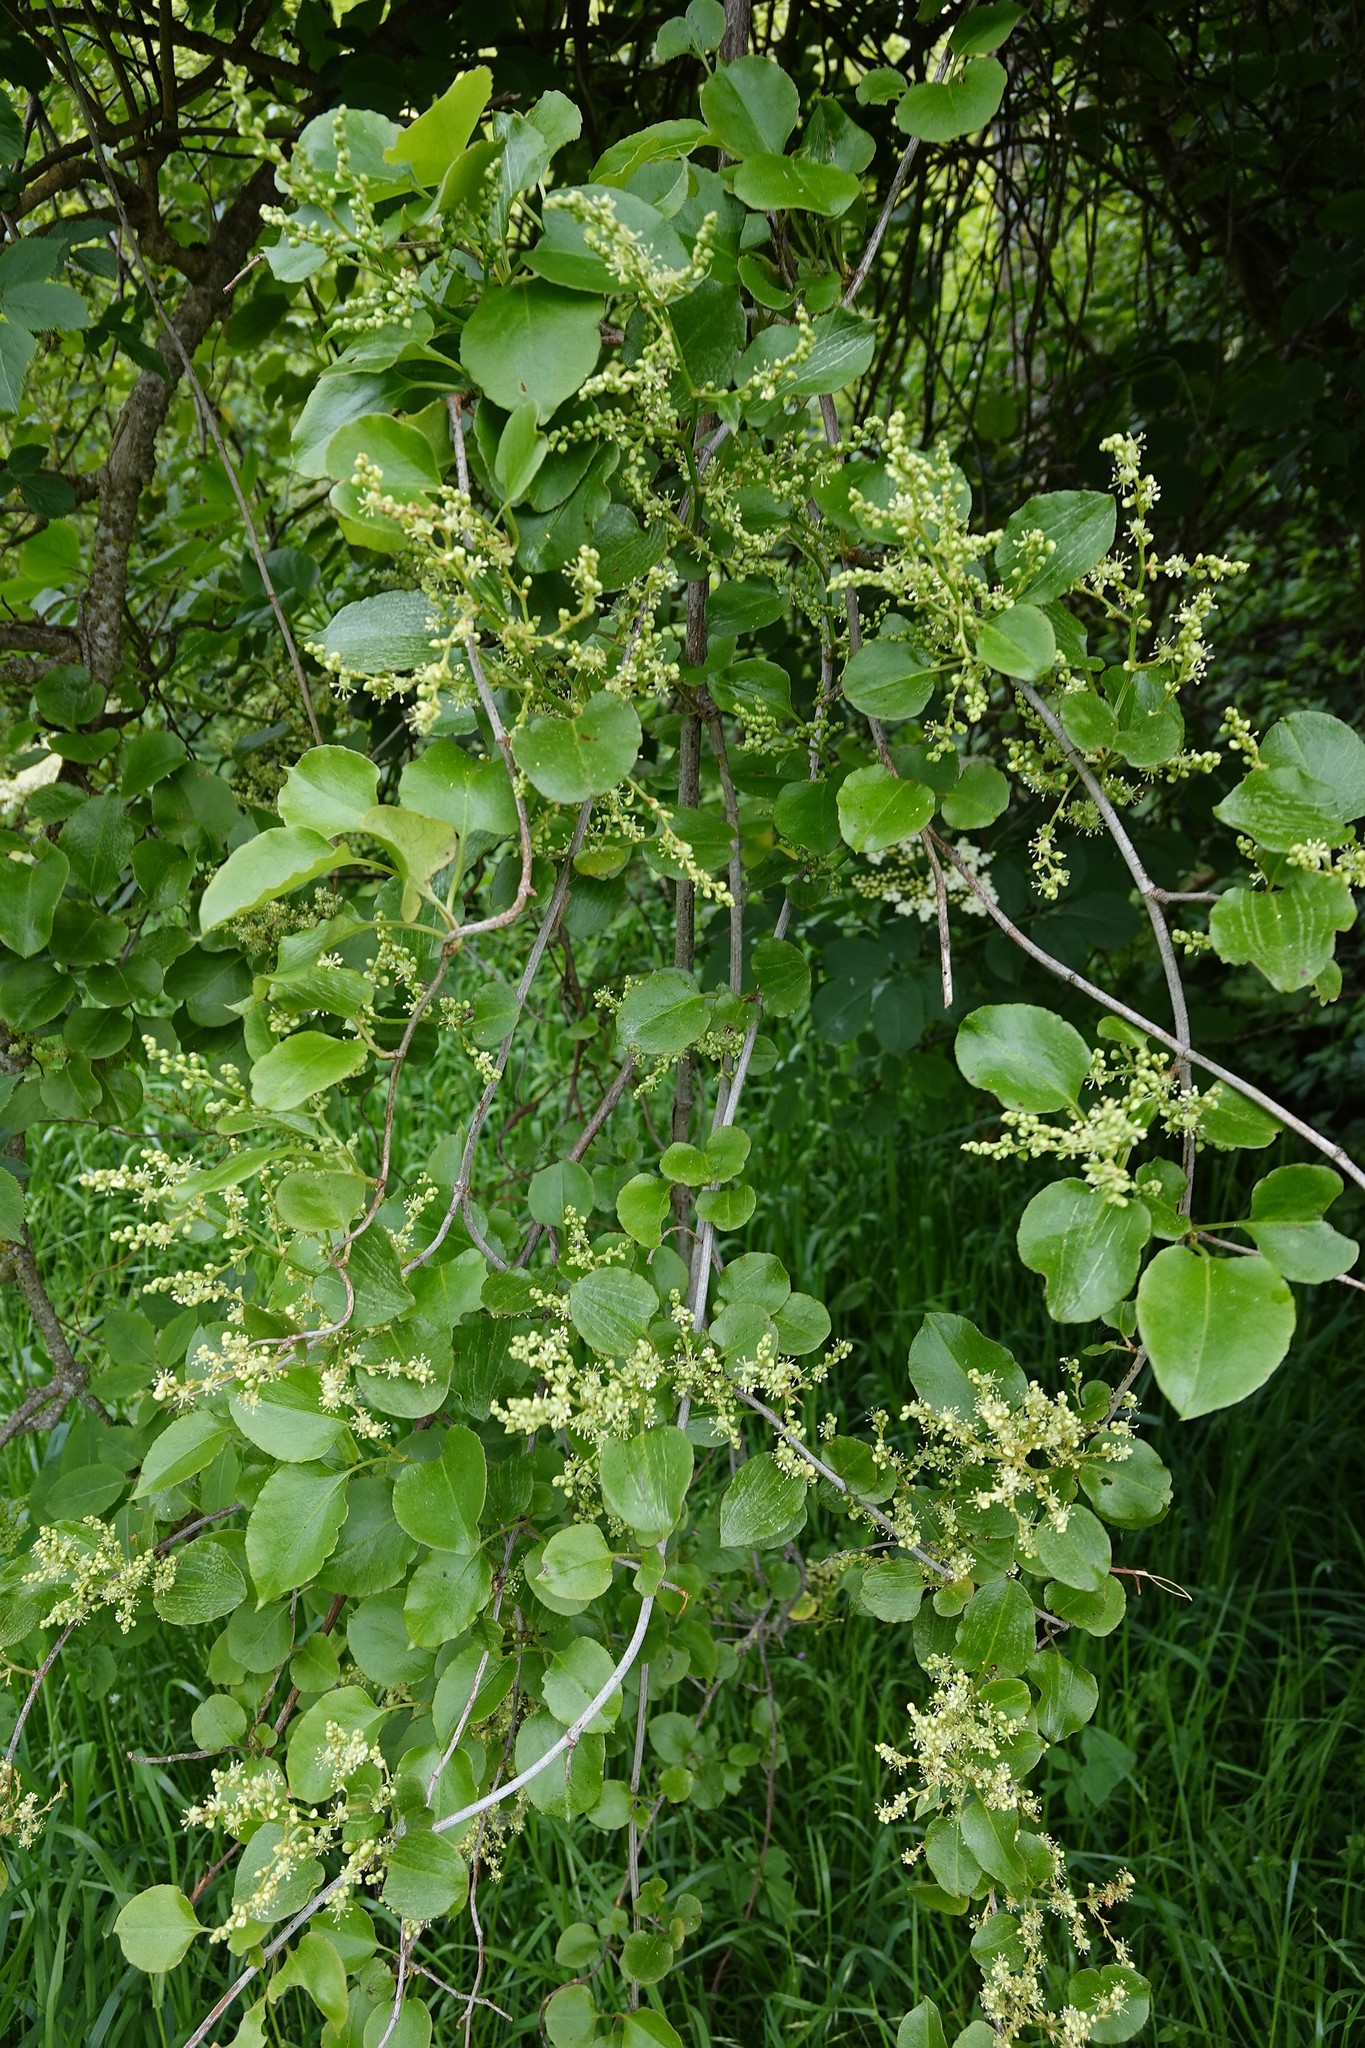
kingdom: Plantae
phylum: Tracheophyta
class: Magnoliopsida
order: Caryophyllales
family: Polygonaceae
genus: Muehlenbeckia
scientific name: Muehlenbeckia australis
